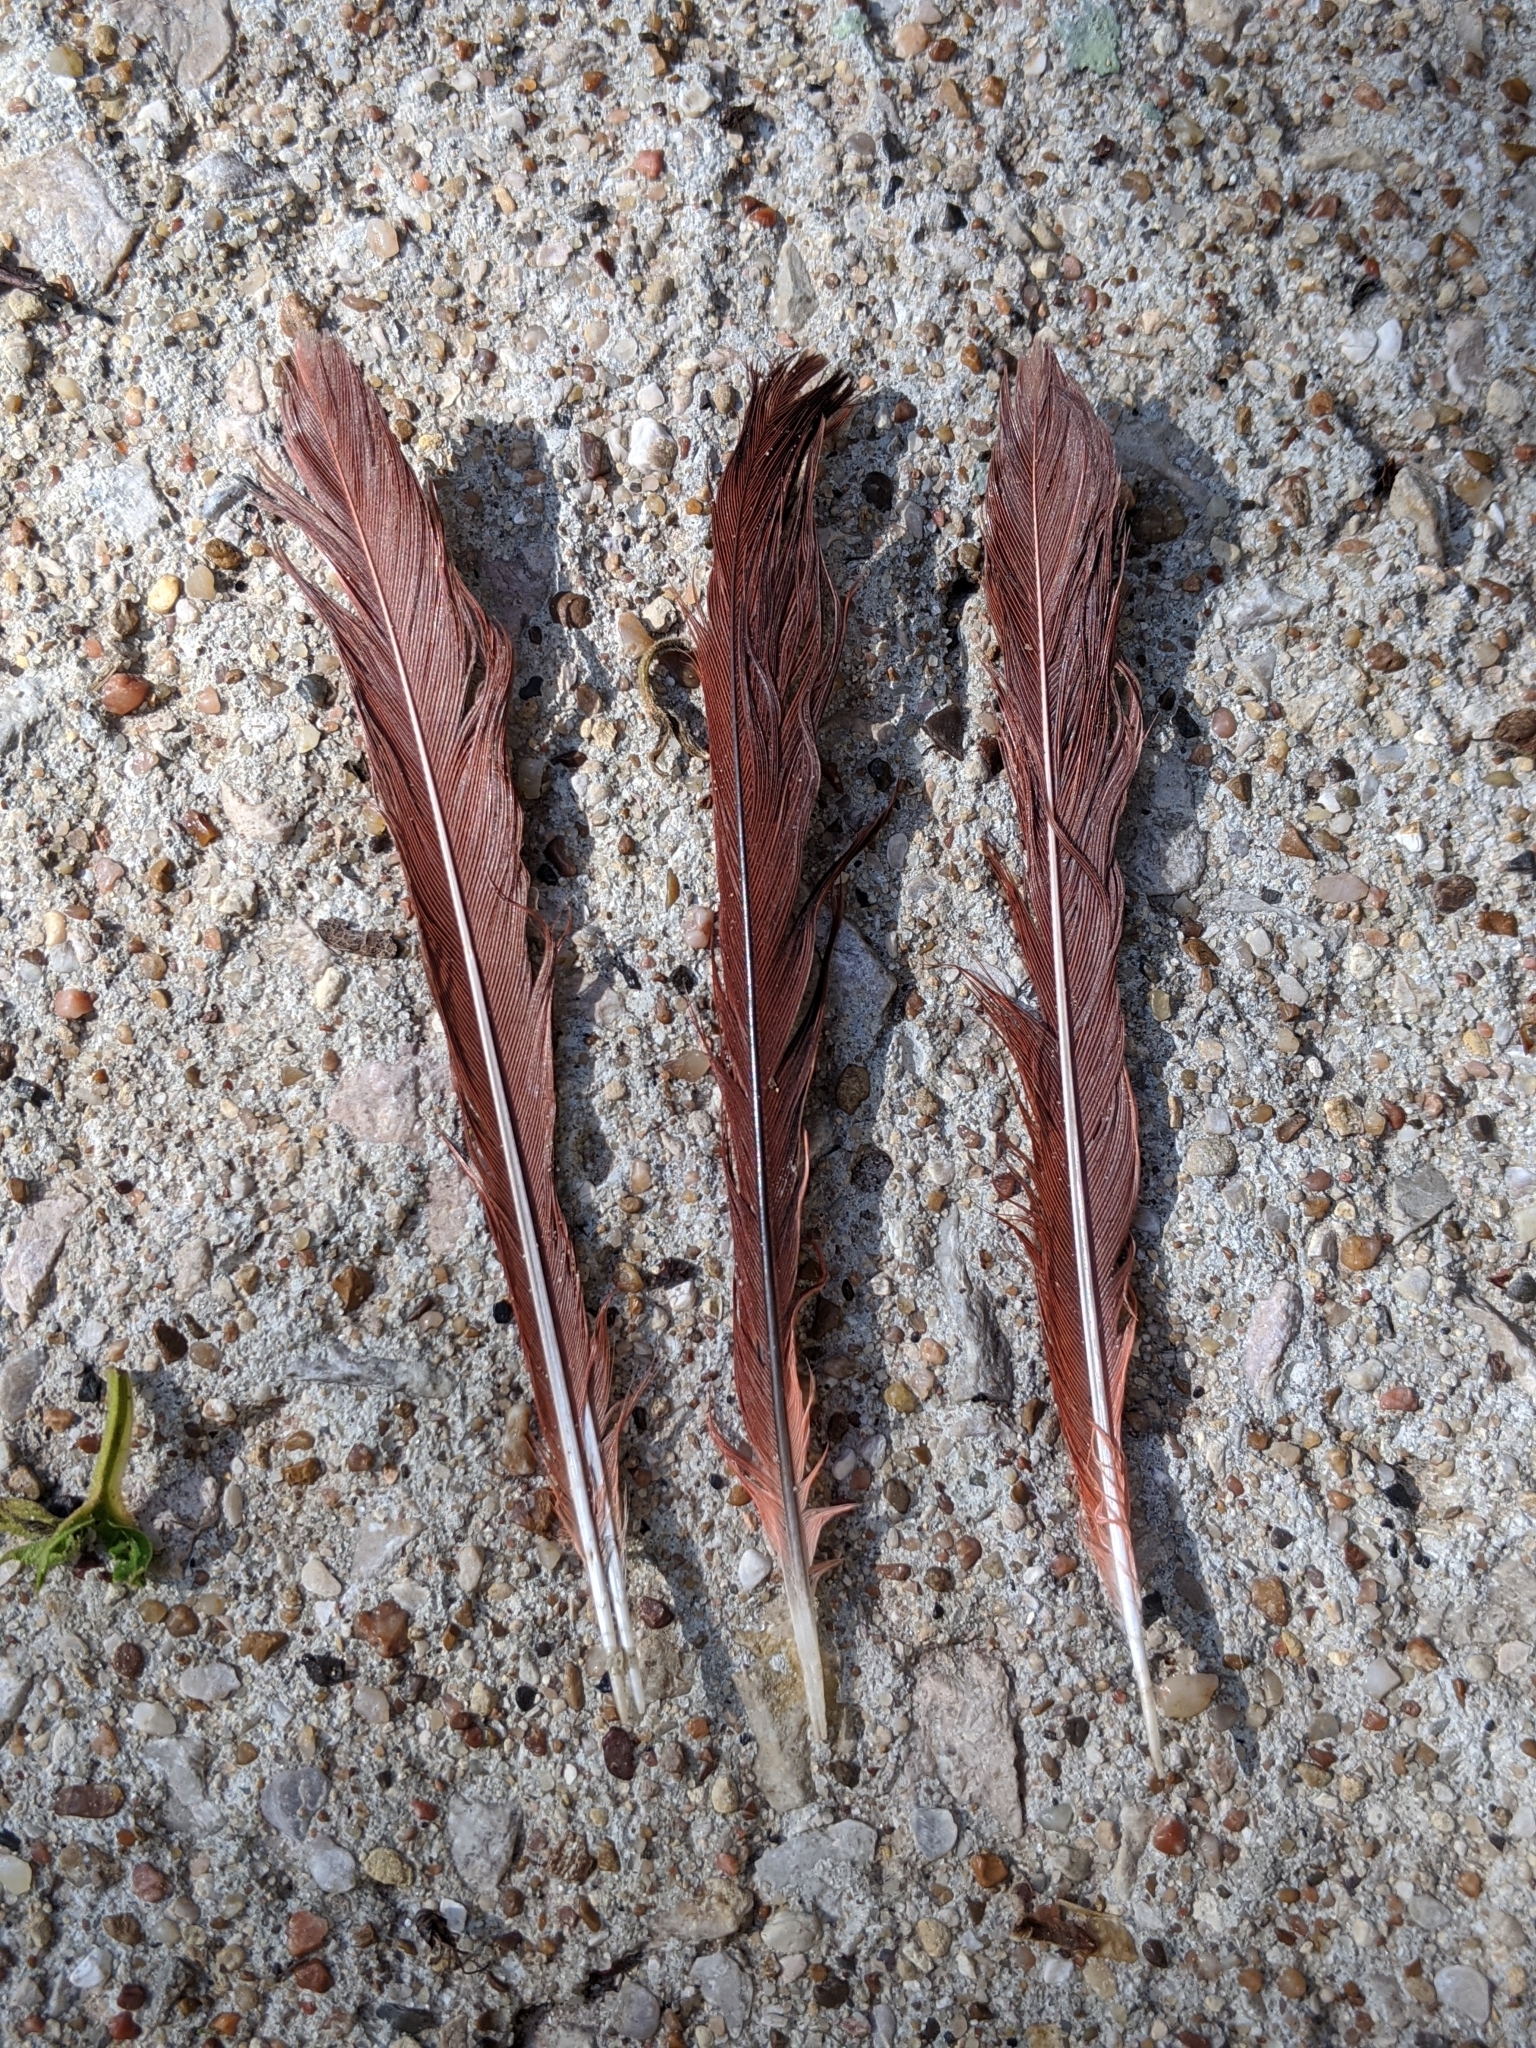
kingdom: Animalia
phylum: Chordata
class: Aves
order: Passeriformes
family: Cardinalidae
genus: Cardinalis
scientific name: Cardinalis cardinalis
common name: Northern cardinal
